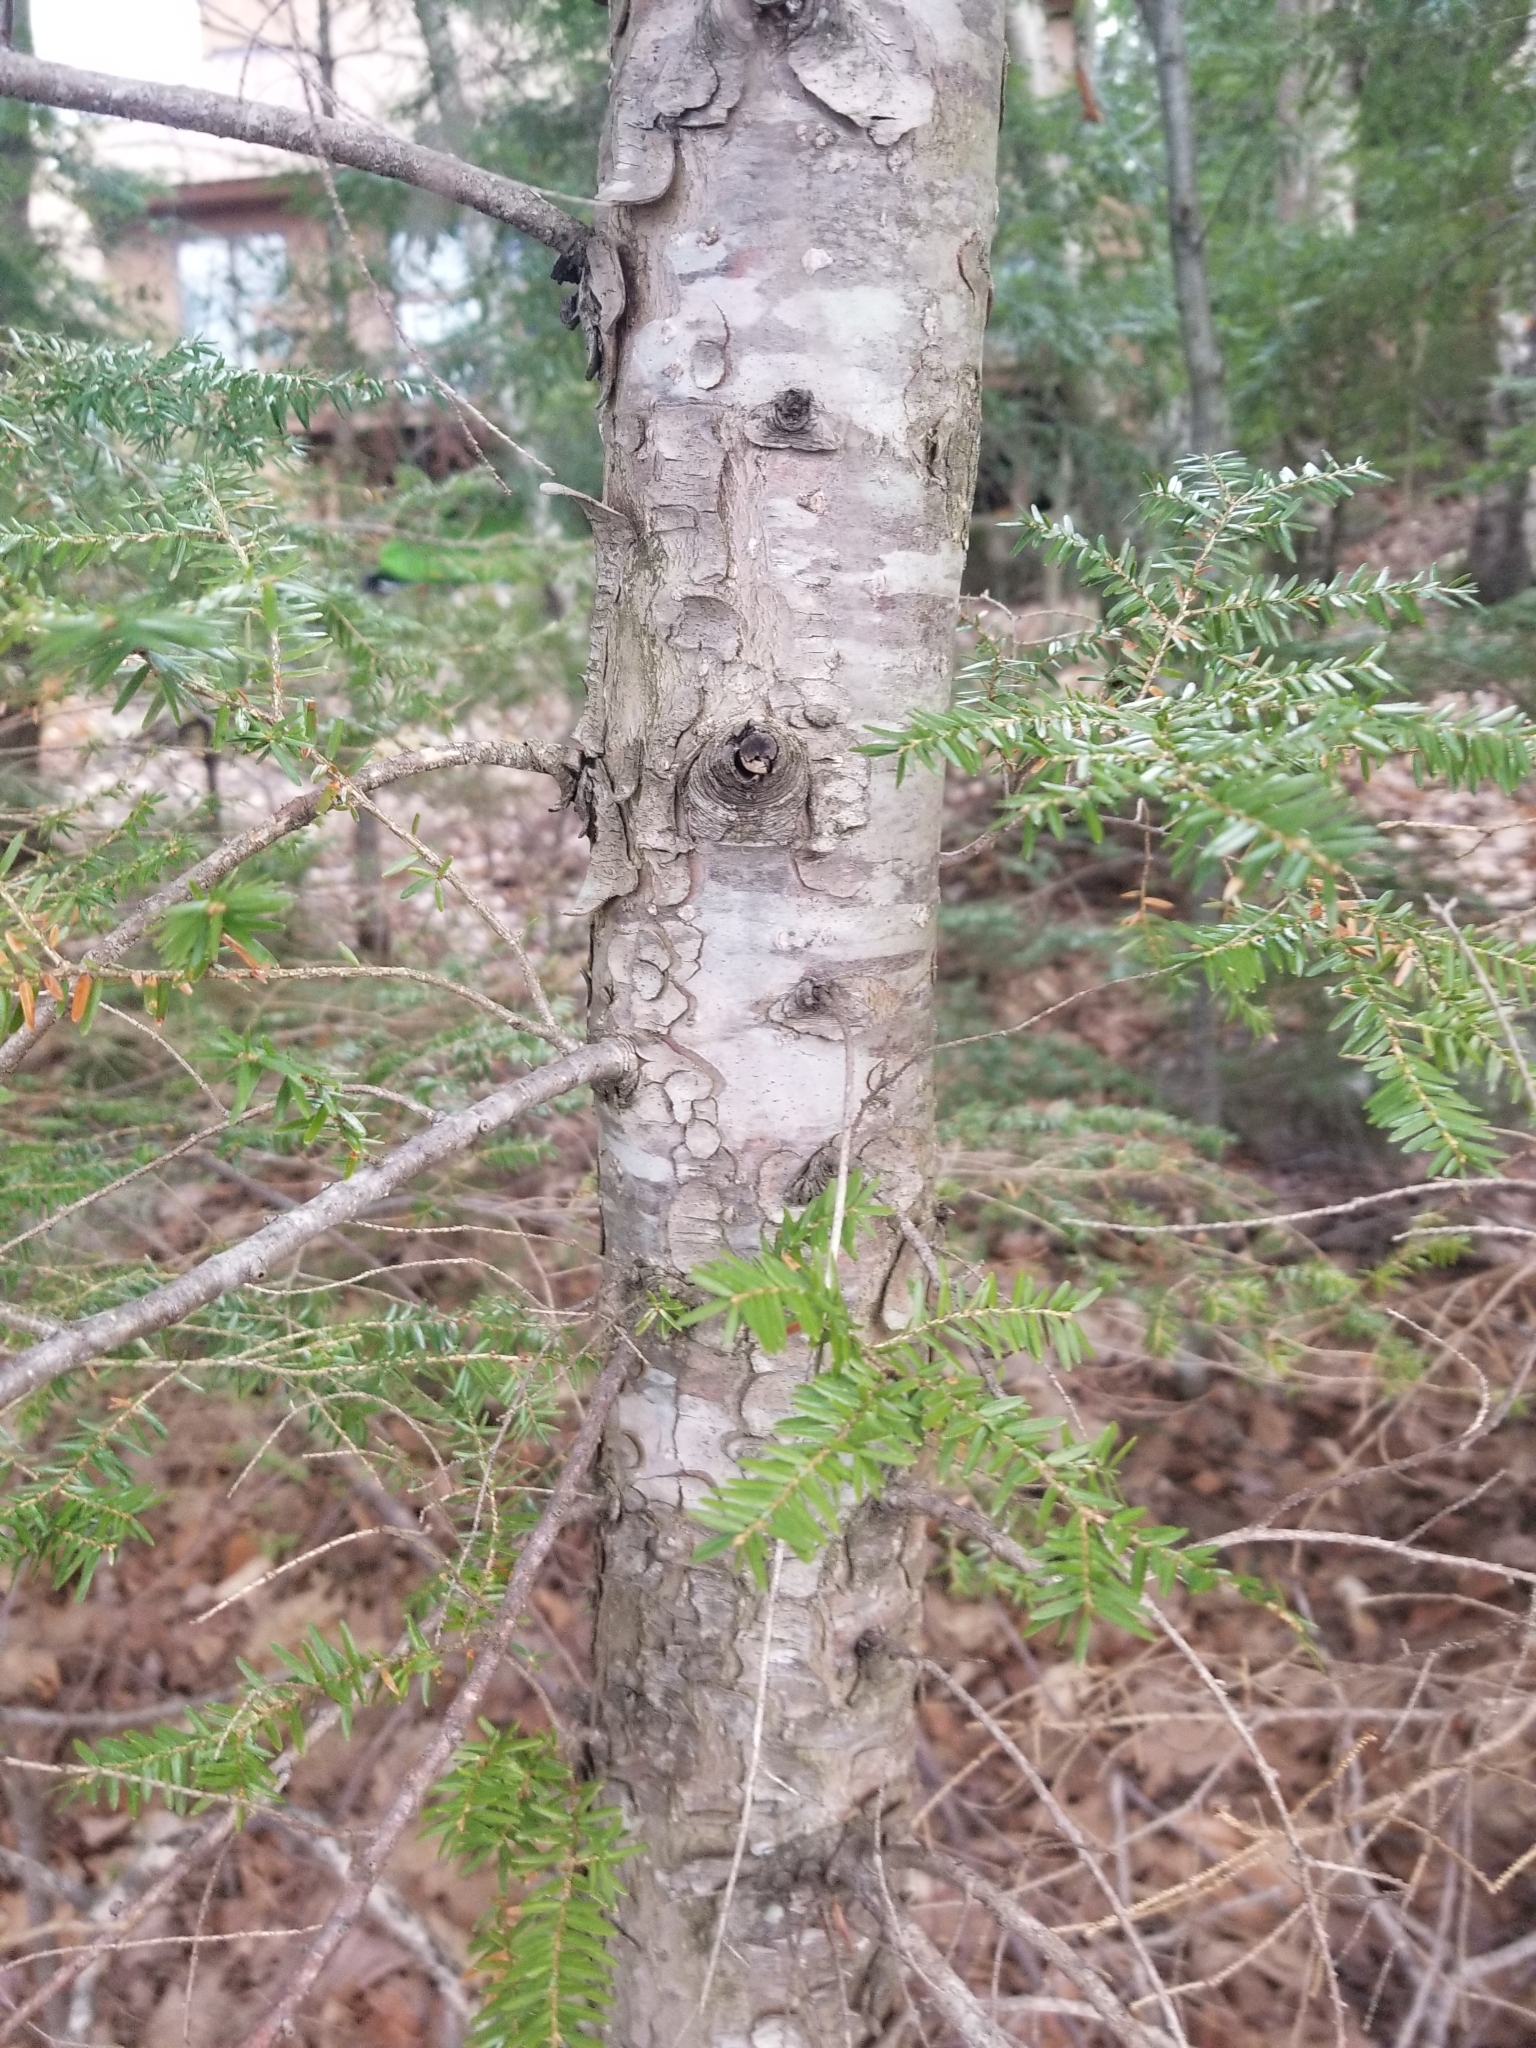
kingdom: Plantae
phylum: Tracheophyta
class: Pinopsida
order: Pinales
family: Pinaceae
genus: Tsuga
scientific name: Tsuga canadensis
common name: Eastern hemlock
